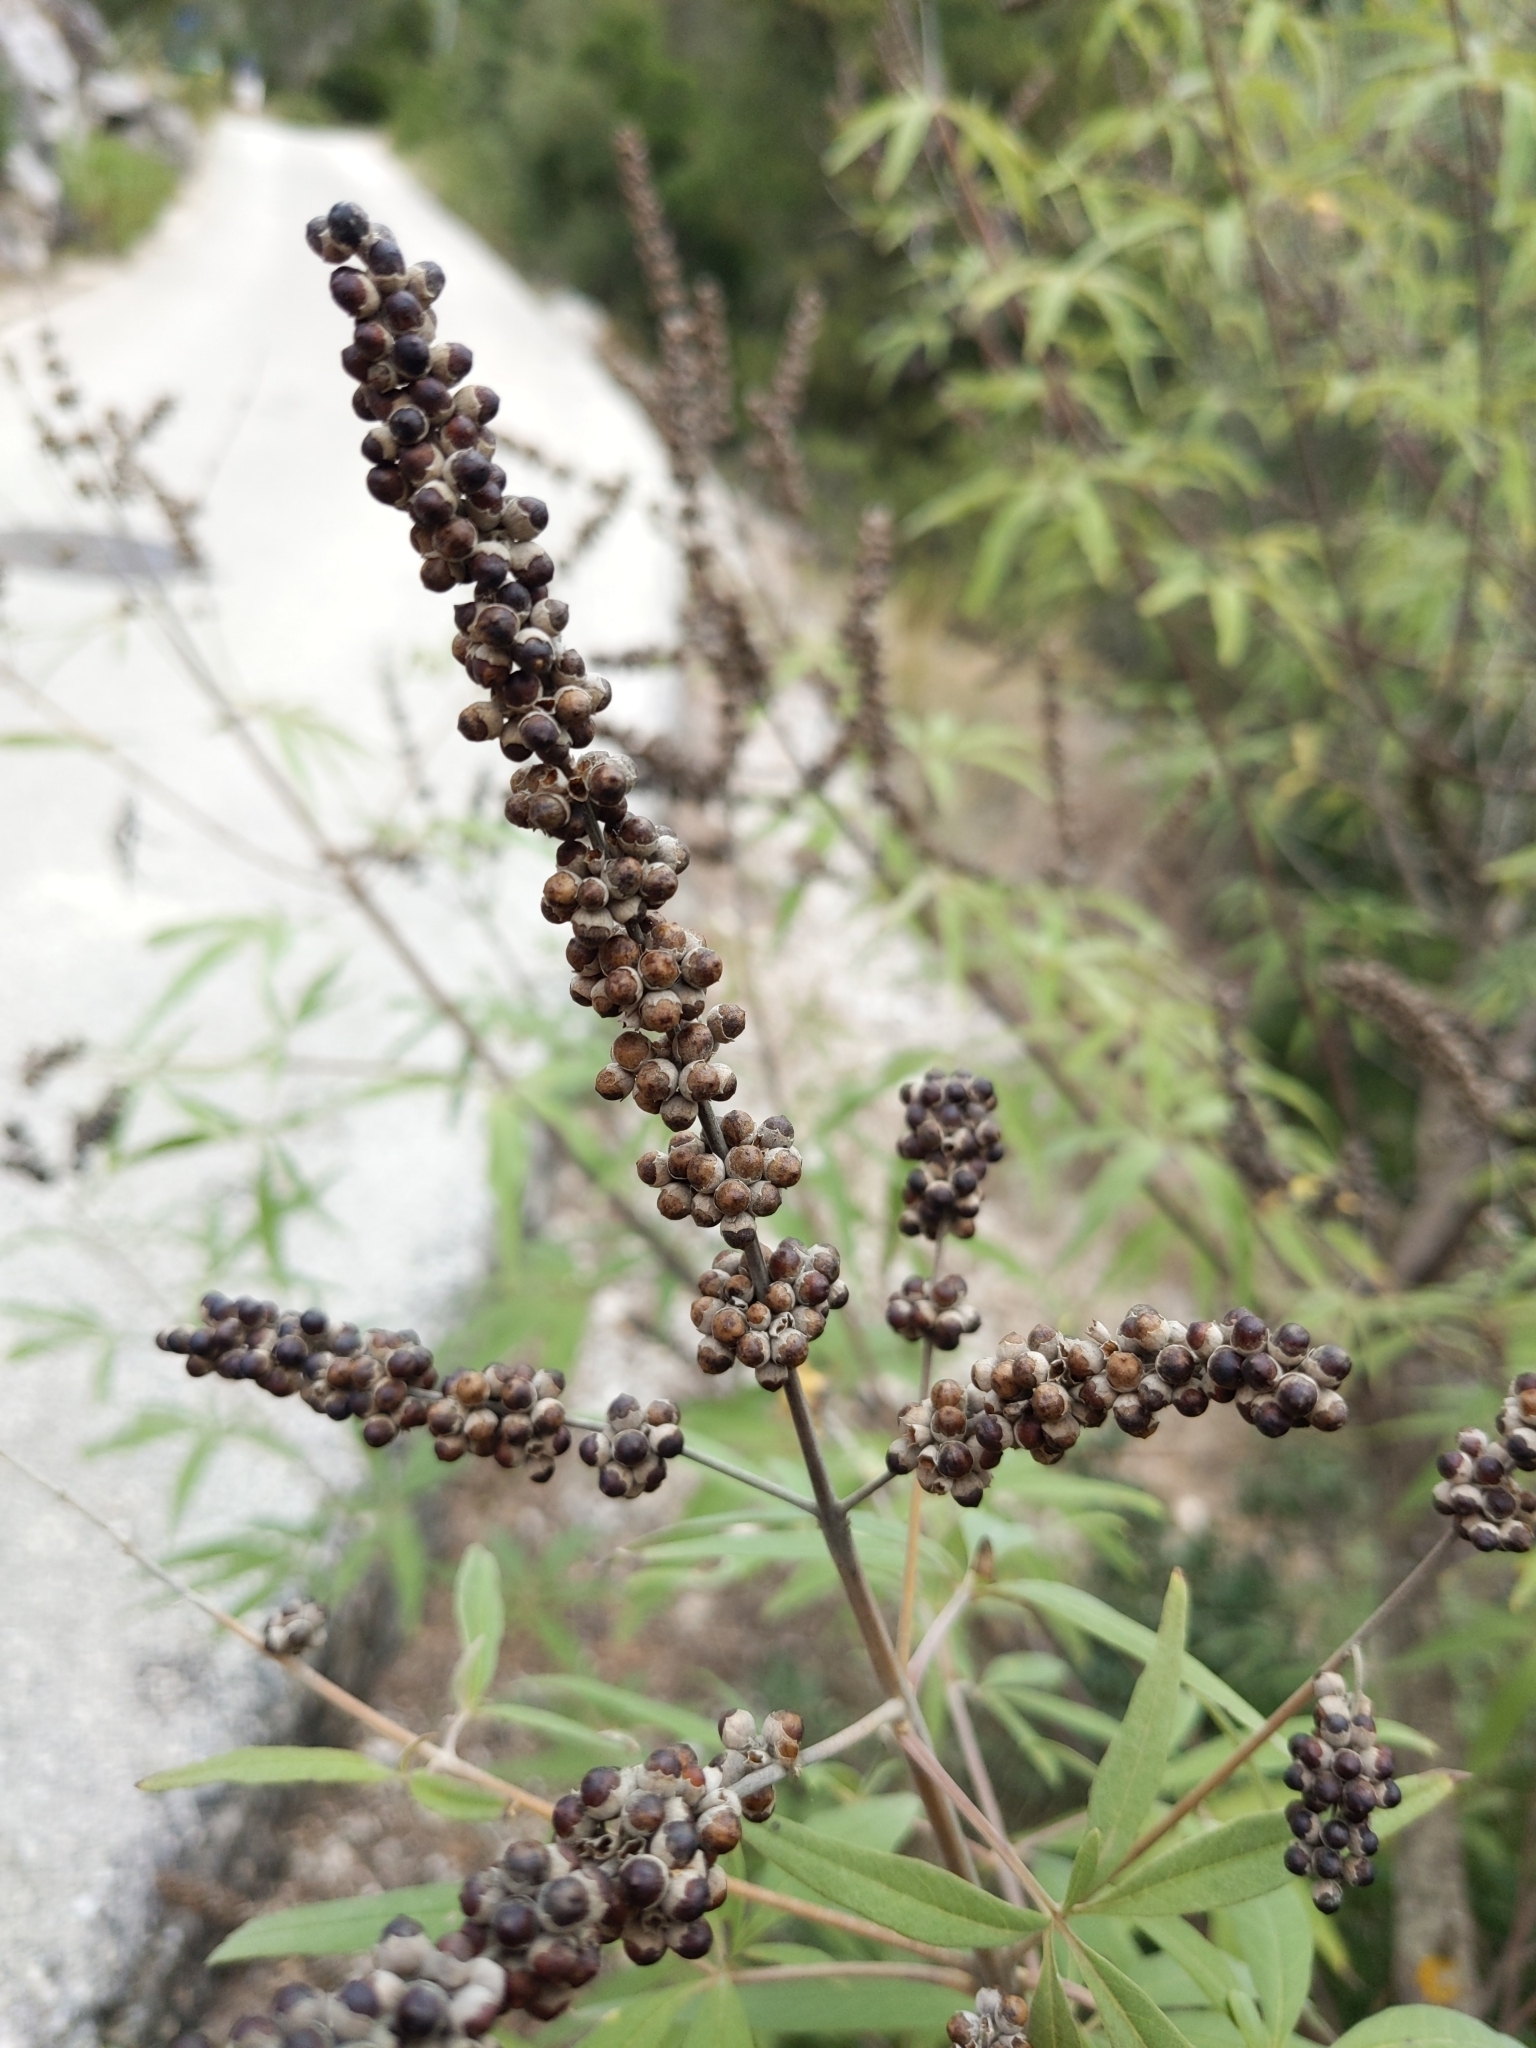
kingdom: Plantae
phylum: Tracheophyta
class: Magnoliopsida
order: Lamiales
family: Lamiaceae
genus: Vitex
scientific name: Vitex agnus-castus
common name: Chasteberry
